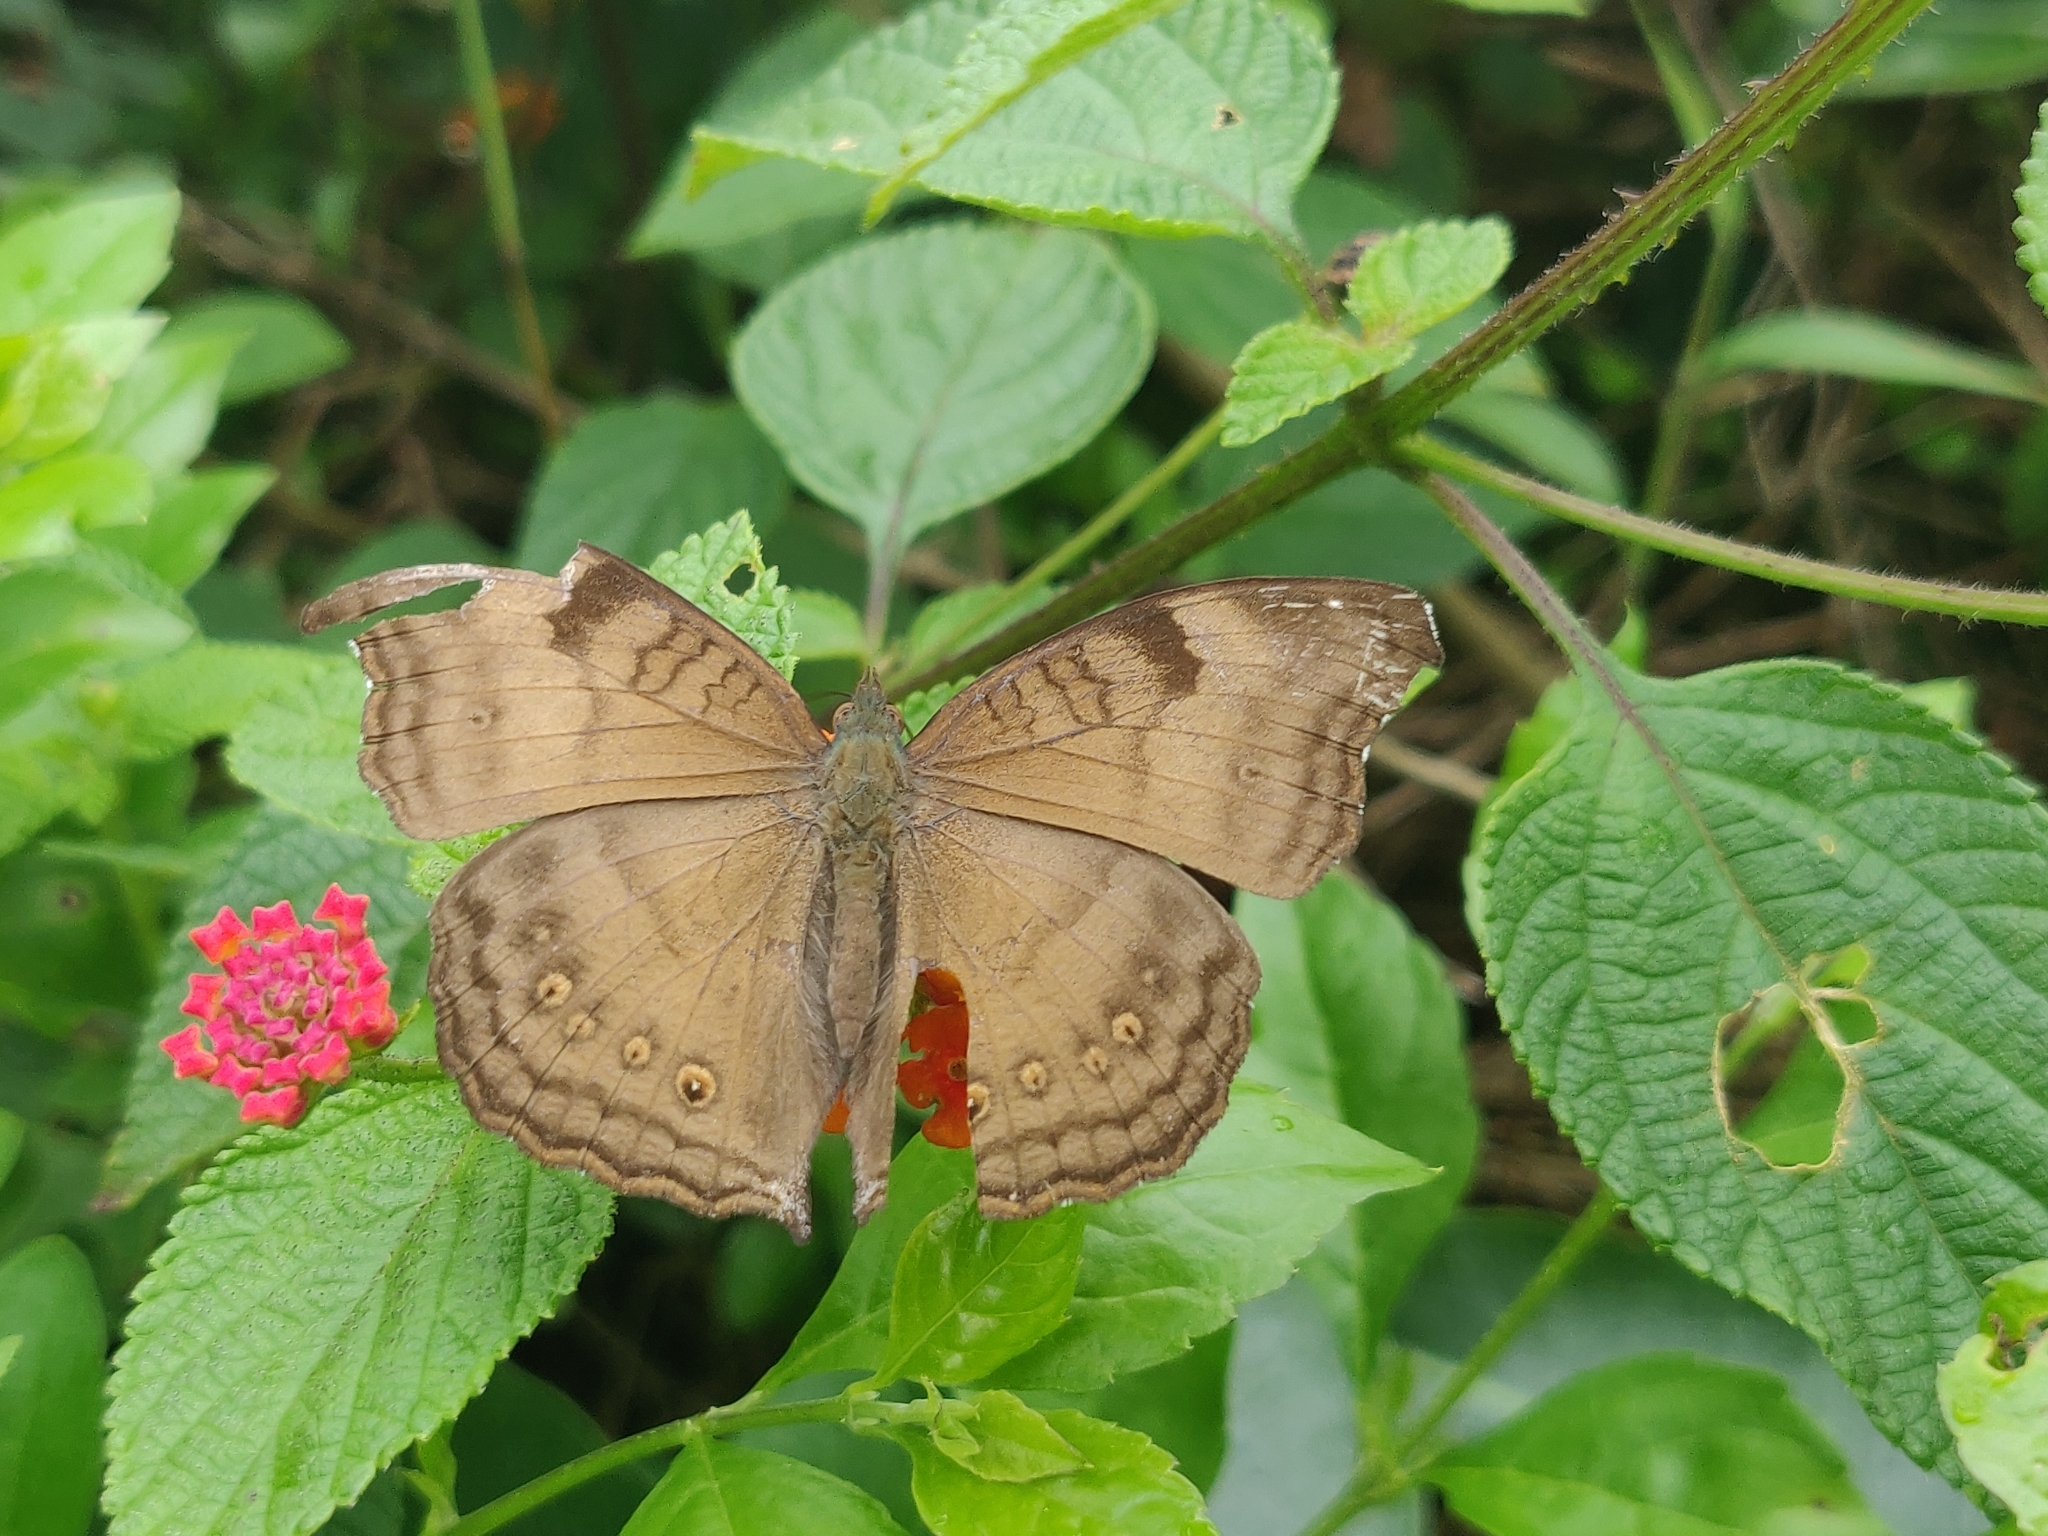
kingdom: Animalia
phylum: Arthropoda
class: Insecta
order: Lepidoptera
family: Nymphalidae
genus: Junonia
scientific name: Junonia iphita
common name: Chocolate pansy
